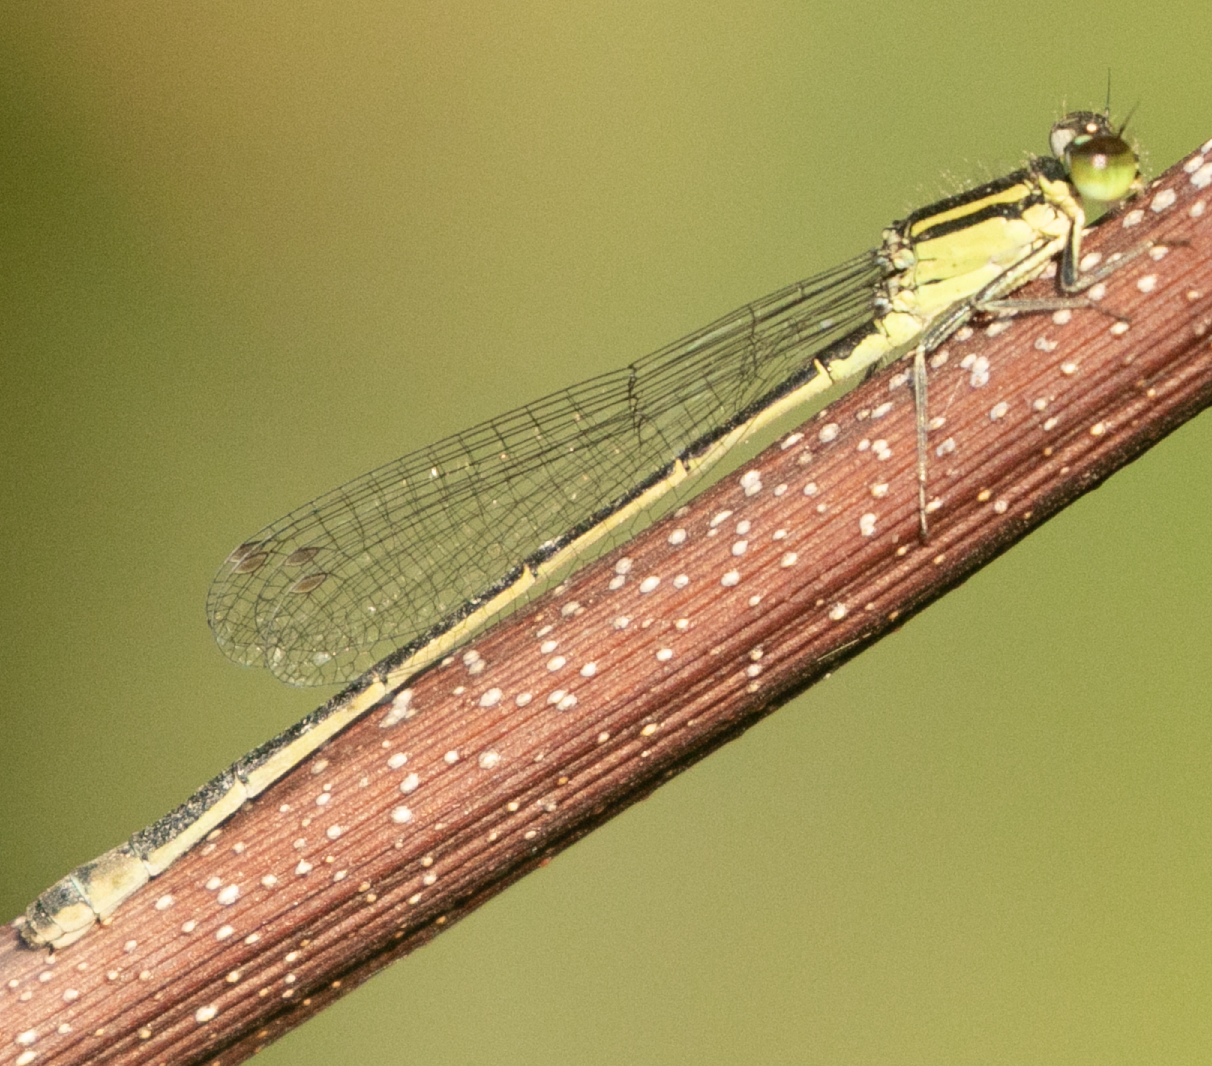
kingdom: Animalia
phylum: Arthropoda
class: Insecta
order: Odonata
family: Coenagrionidae
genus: Ischnura
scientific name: Ischnura elegans
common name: Blue-tailed damselfly
